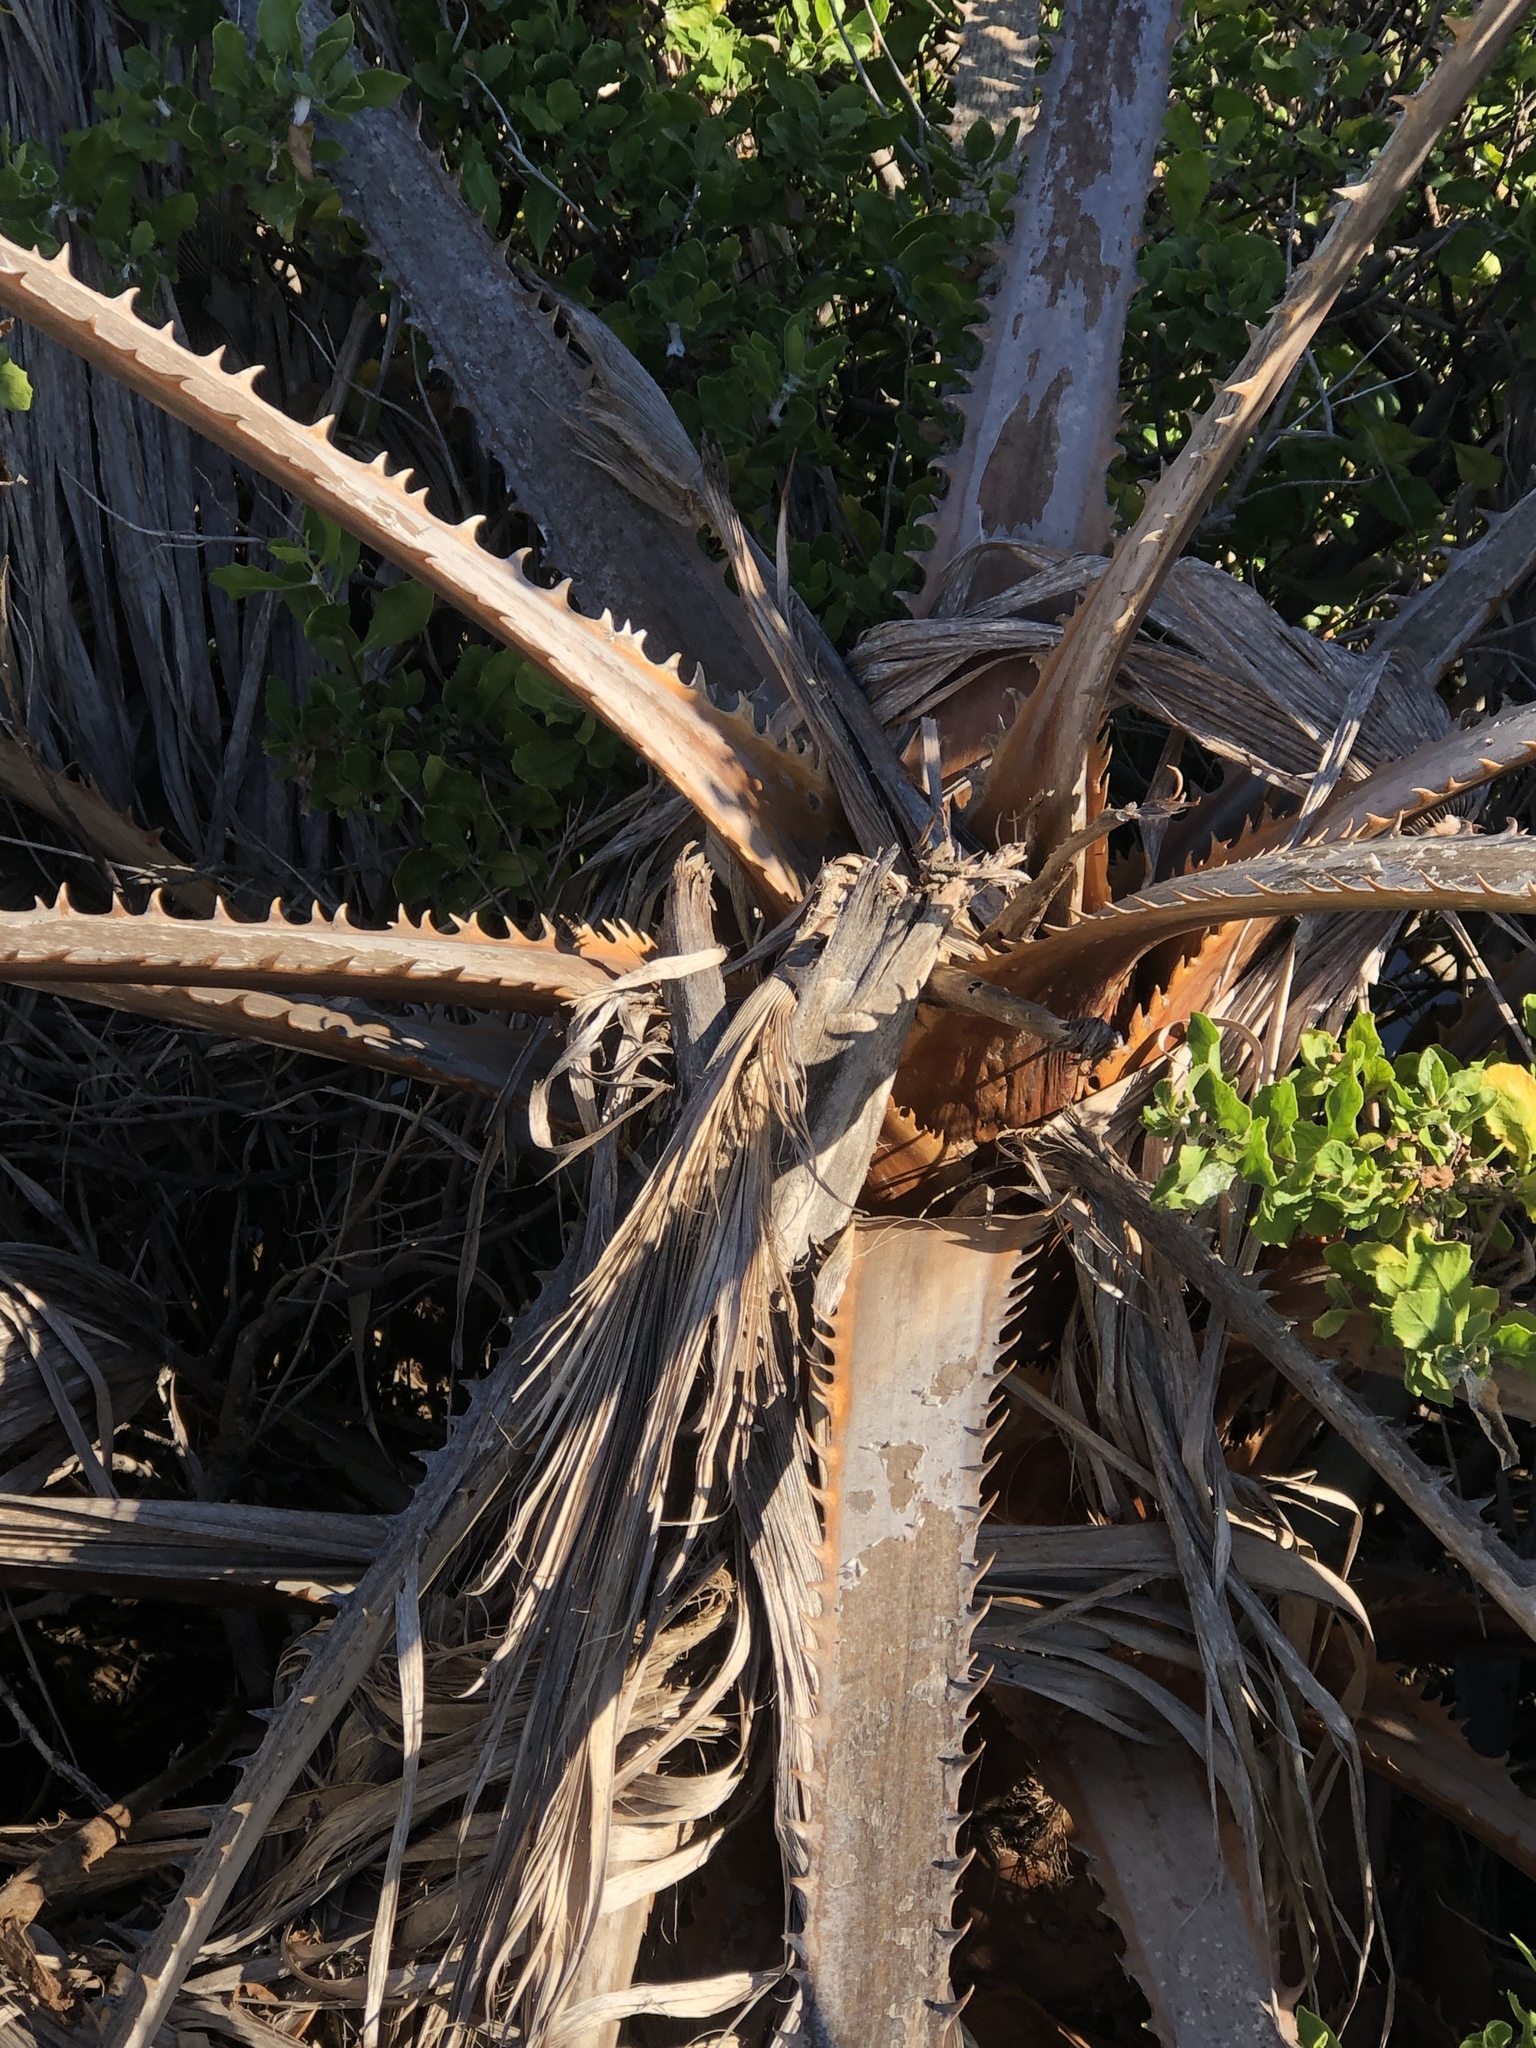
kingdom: Plantae
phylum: Tracheophyta
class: Liliopsida
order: Arecales
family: Arecaceae
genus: Washingtonia
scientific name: Washingtonia robusta
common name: Mexican fan palm
